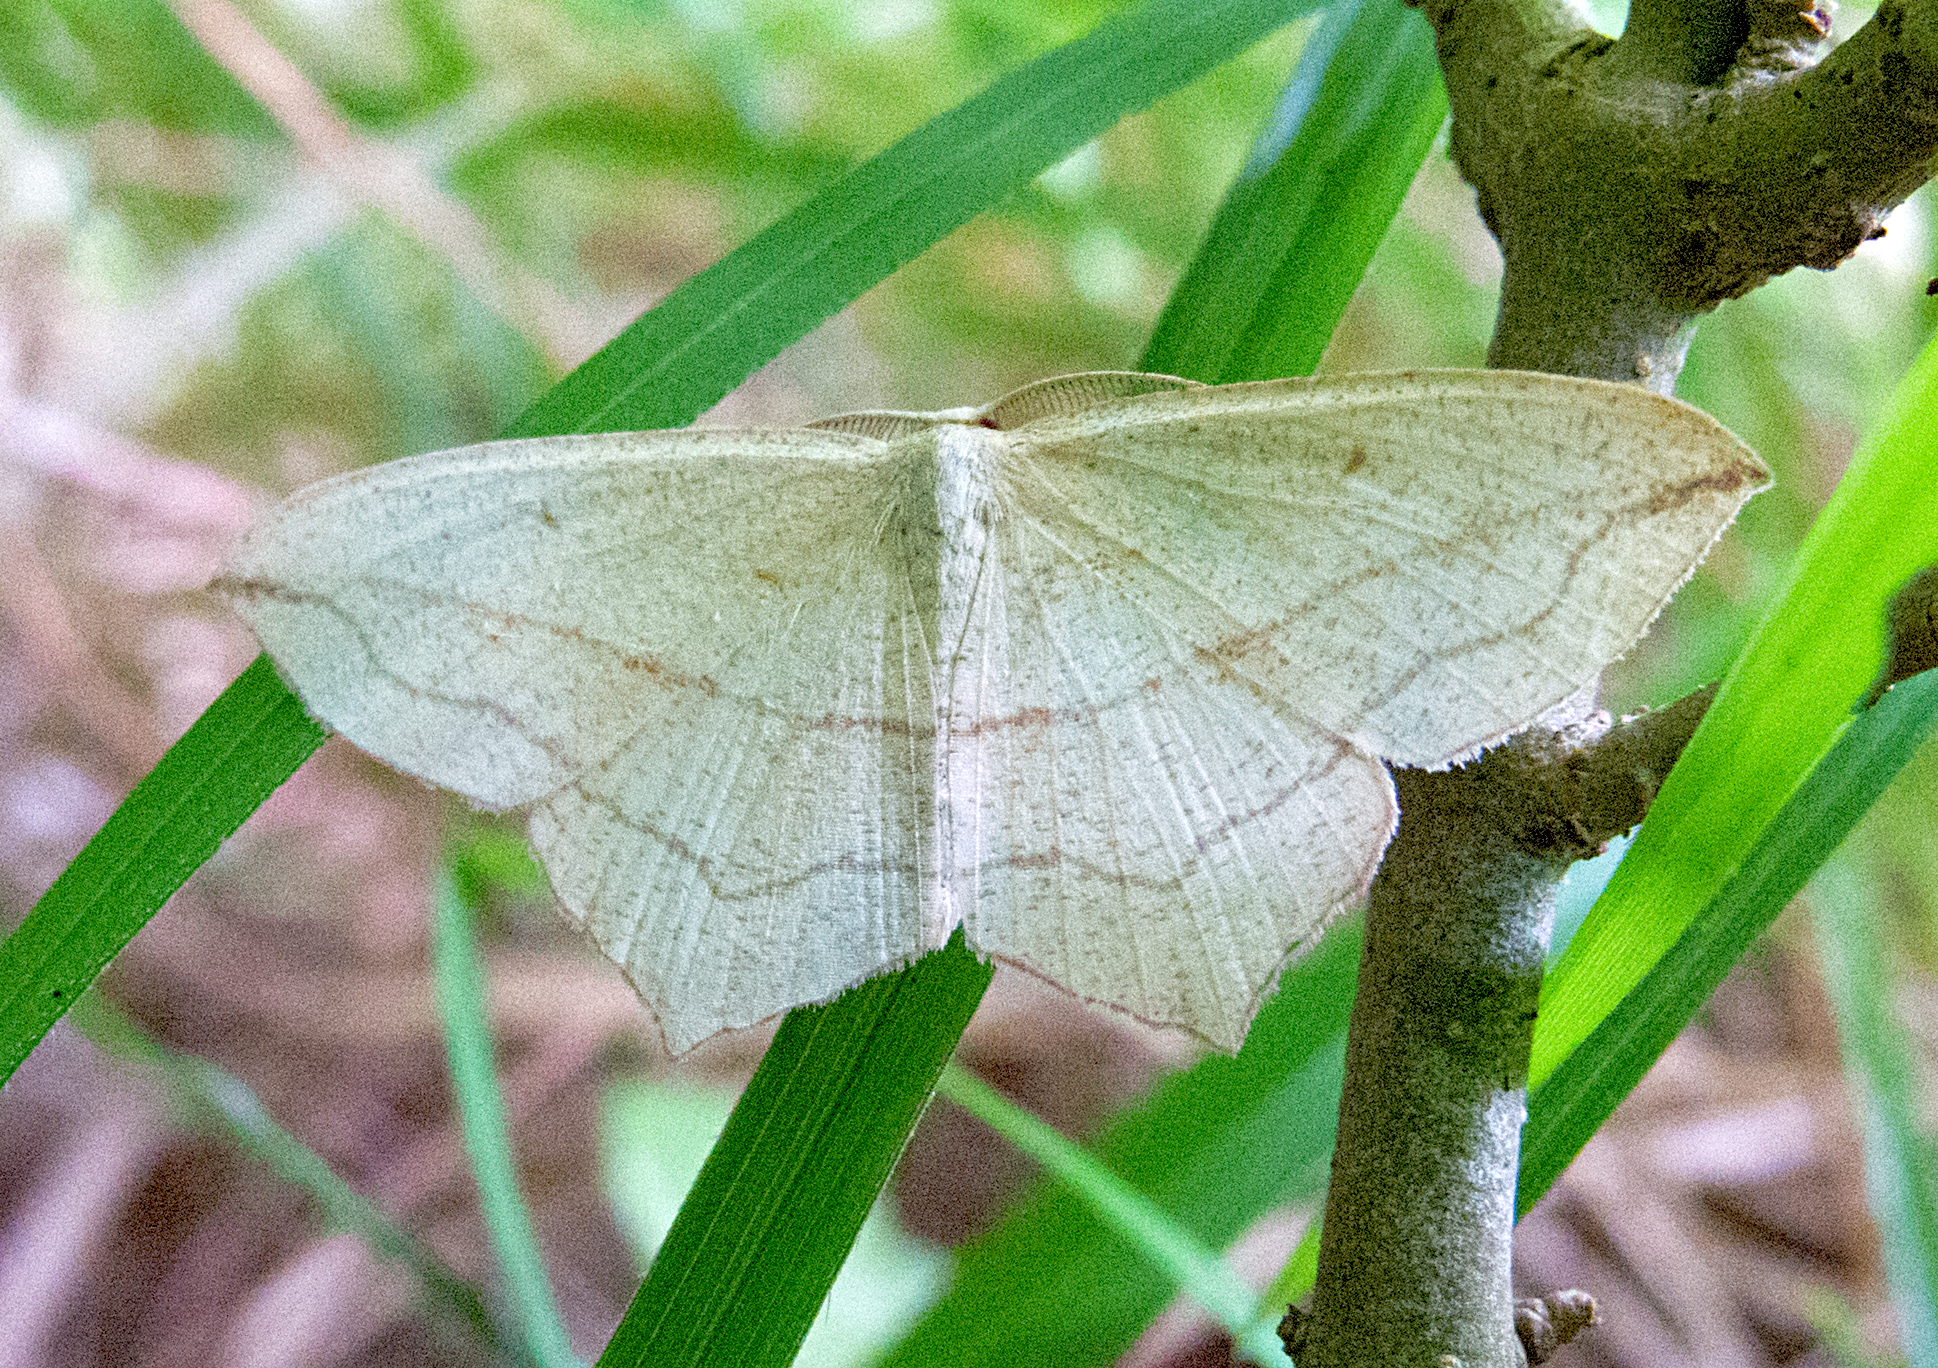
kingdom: Animalia
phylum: Arthropoda
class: Insecta
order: Lepidoptera
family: Geometridae
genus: Timandra
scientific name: Timandra comae
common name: Blood-vein
